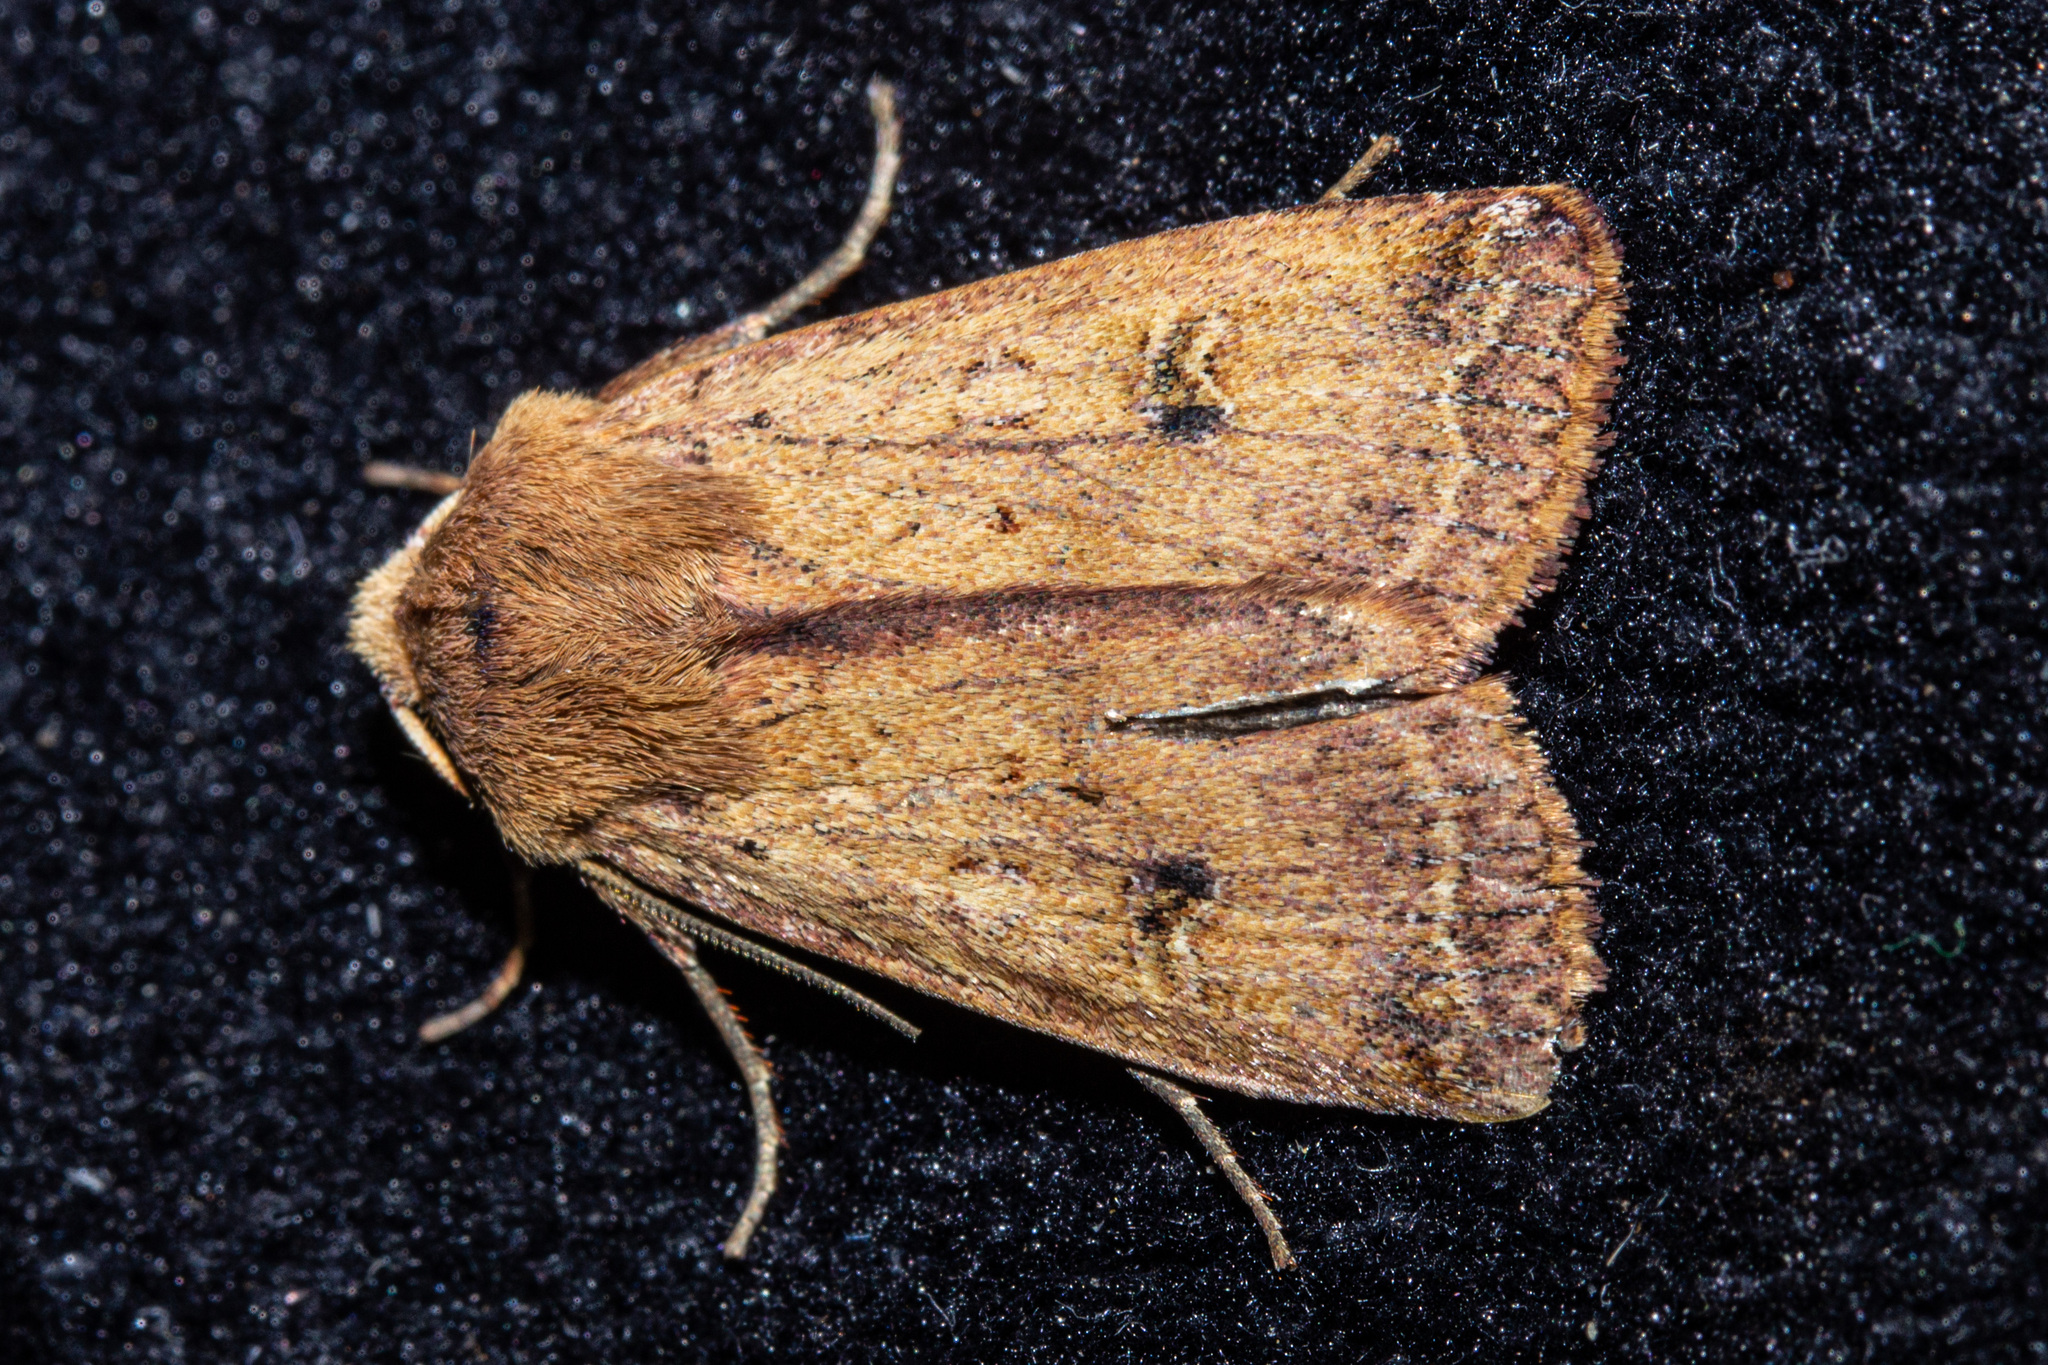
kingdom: Animalia
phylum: Arthropoda
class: Insecta
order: Lepidoptera
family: Noctuidae
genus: Diarsia
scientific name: Diarsia intermixta
